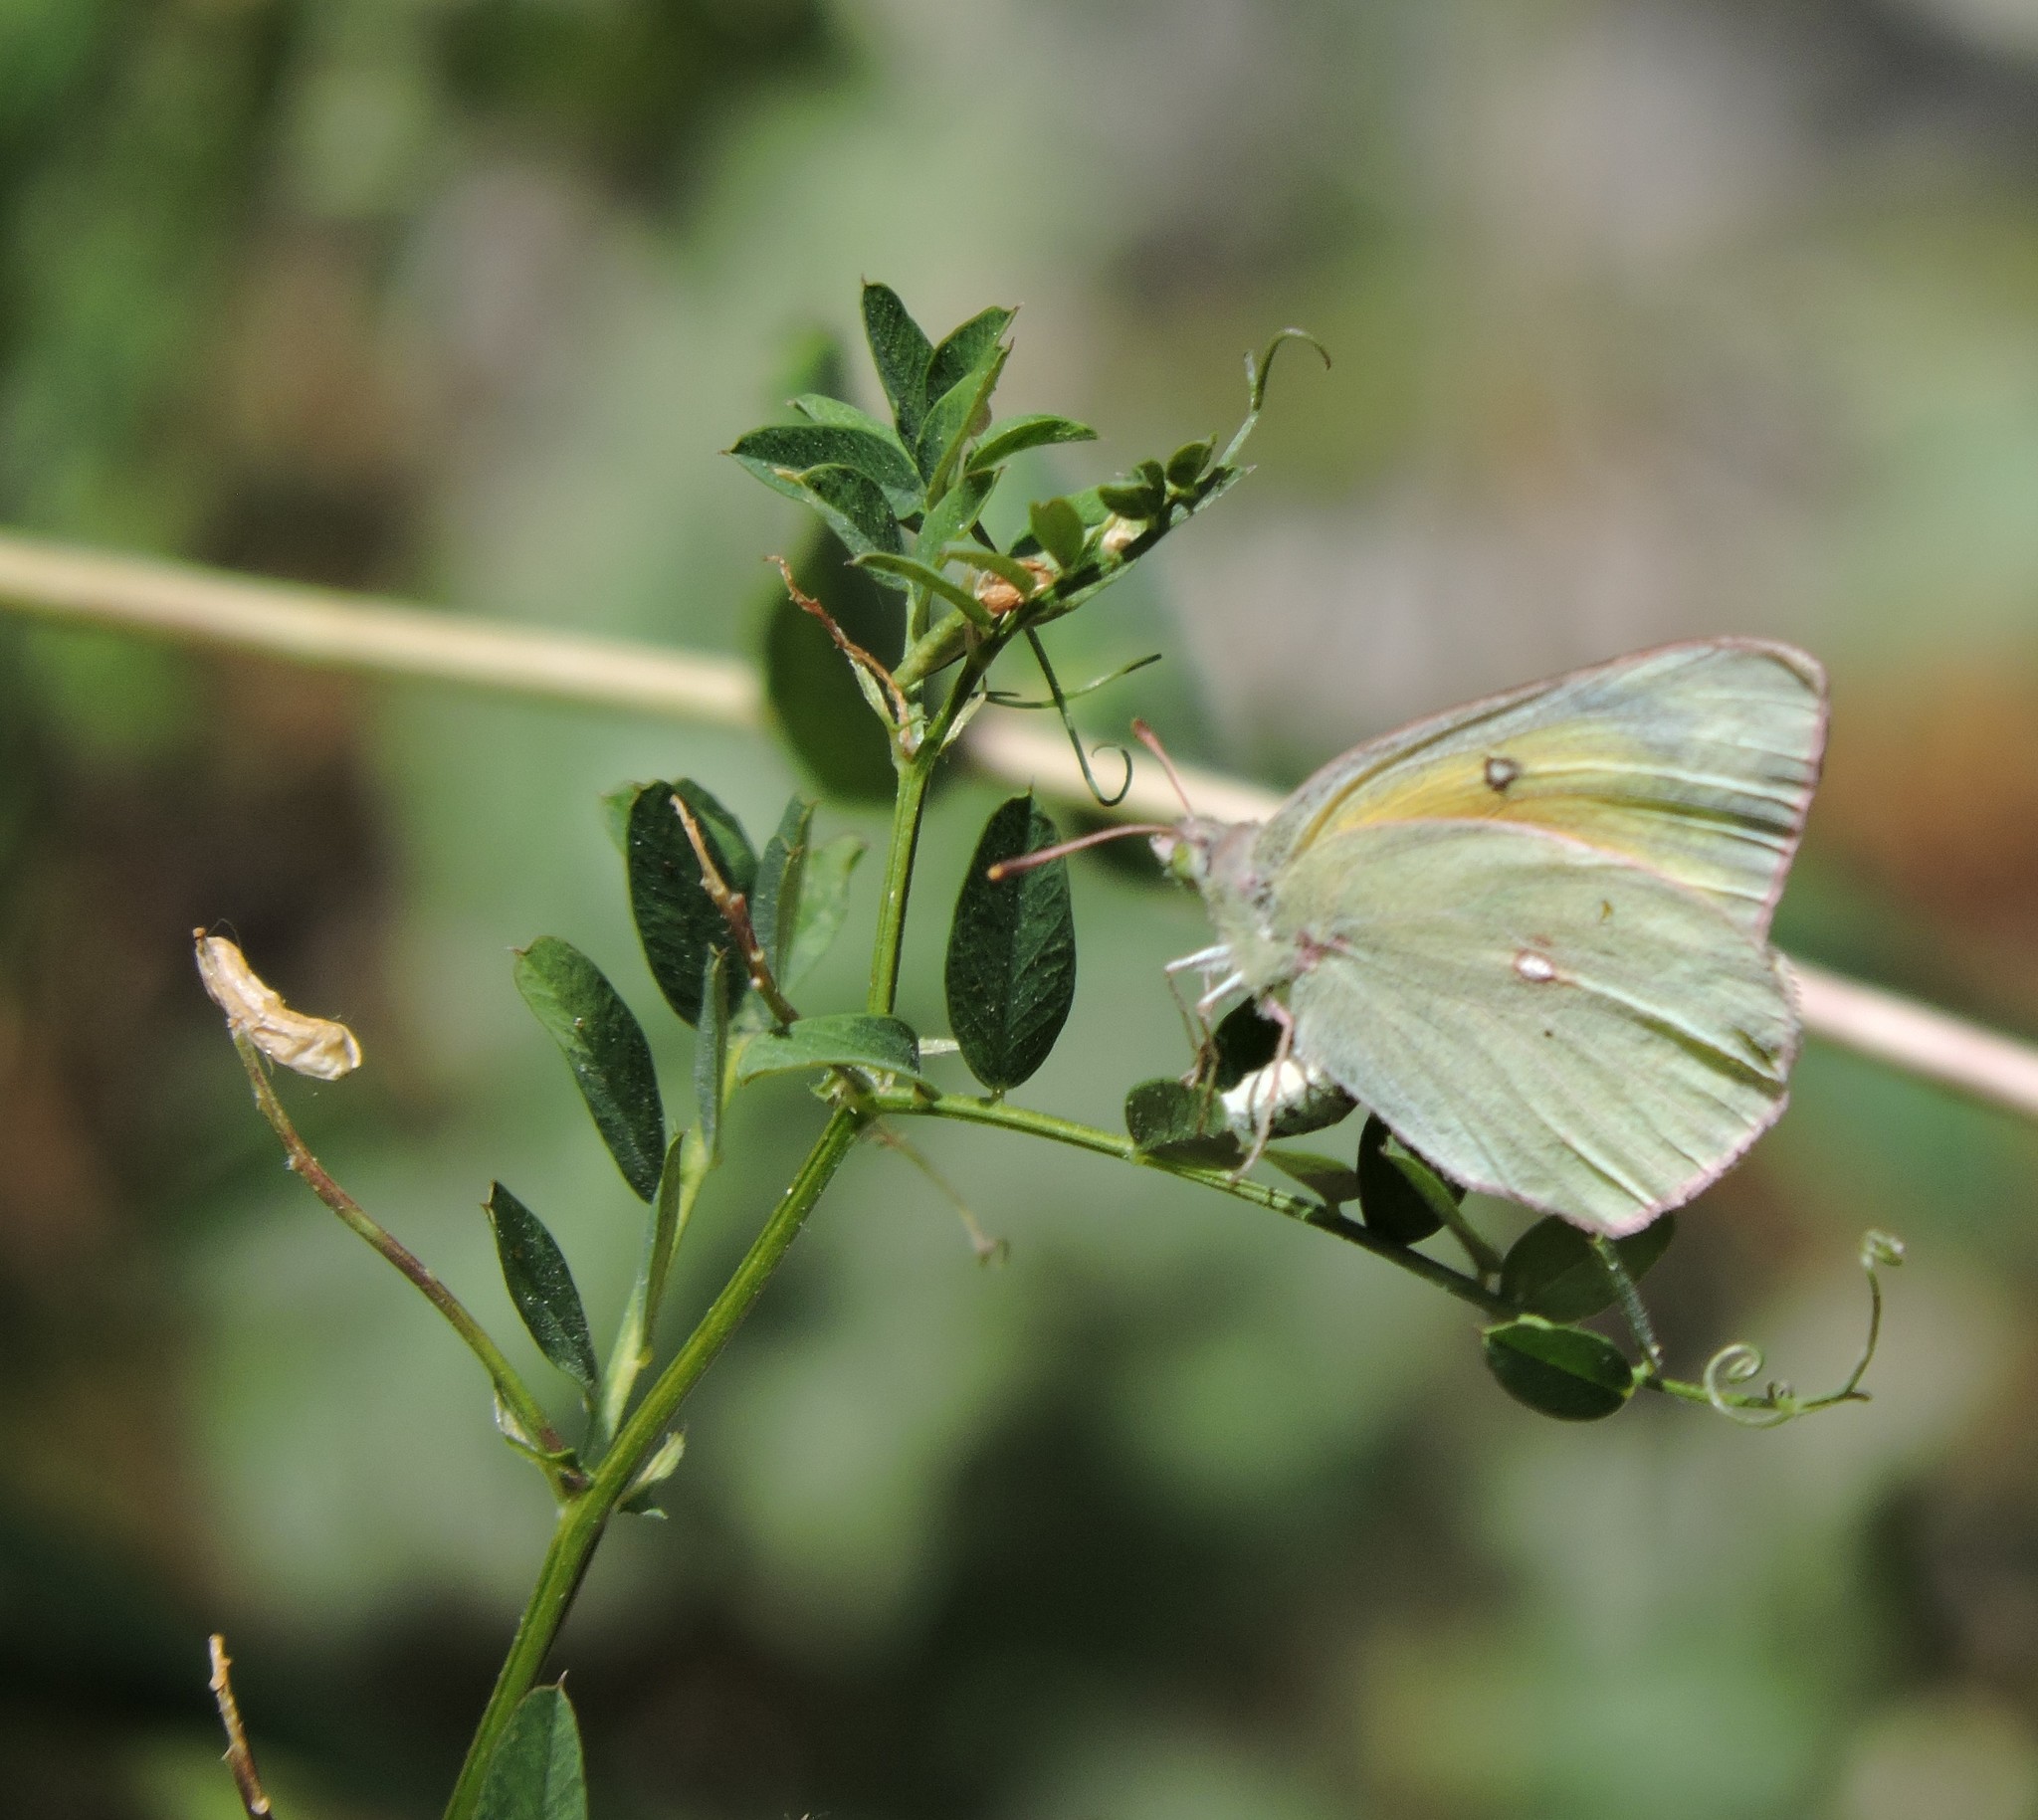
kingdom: Animalia
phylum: Arthropoda
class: Insecta
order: Lepidoptera
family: Pieridae
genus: Colias
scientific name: Colias eurytheme
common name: Alfalfa butterfly
